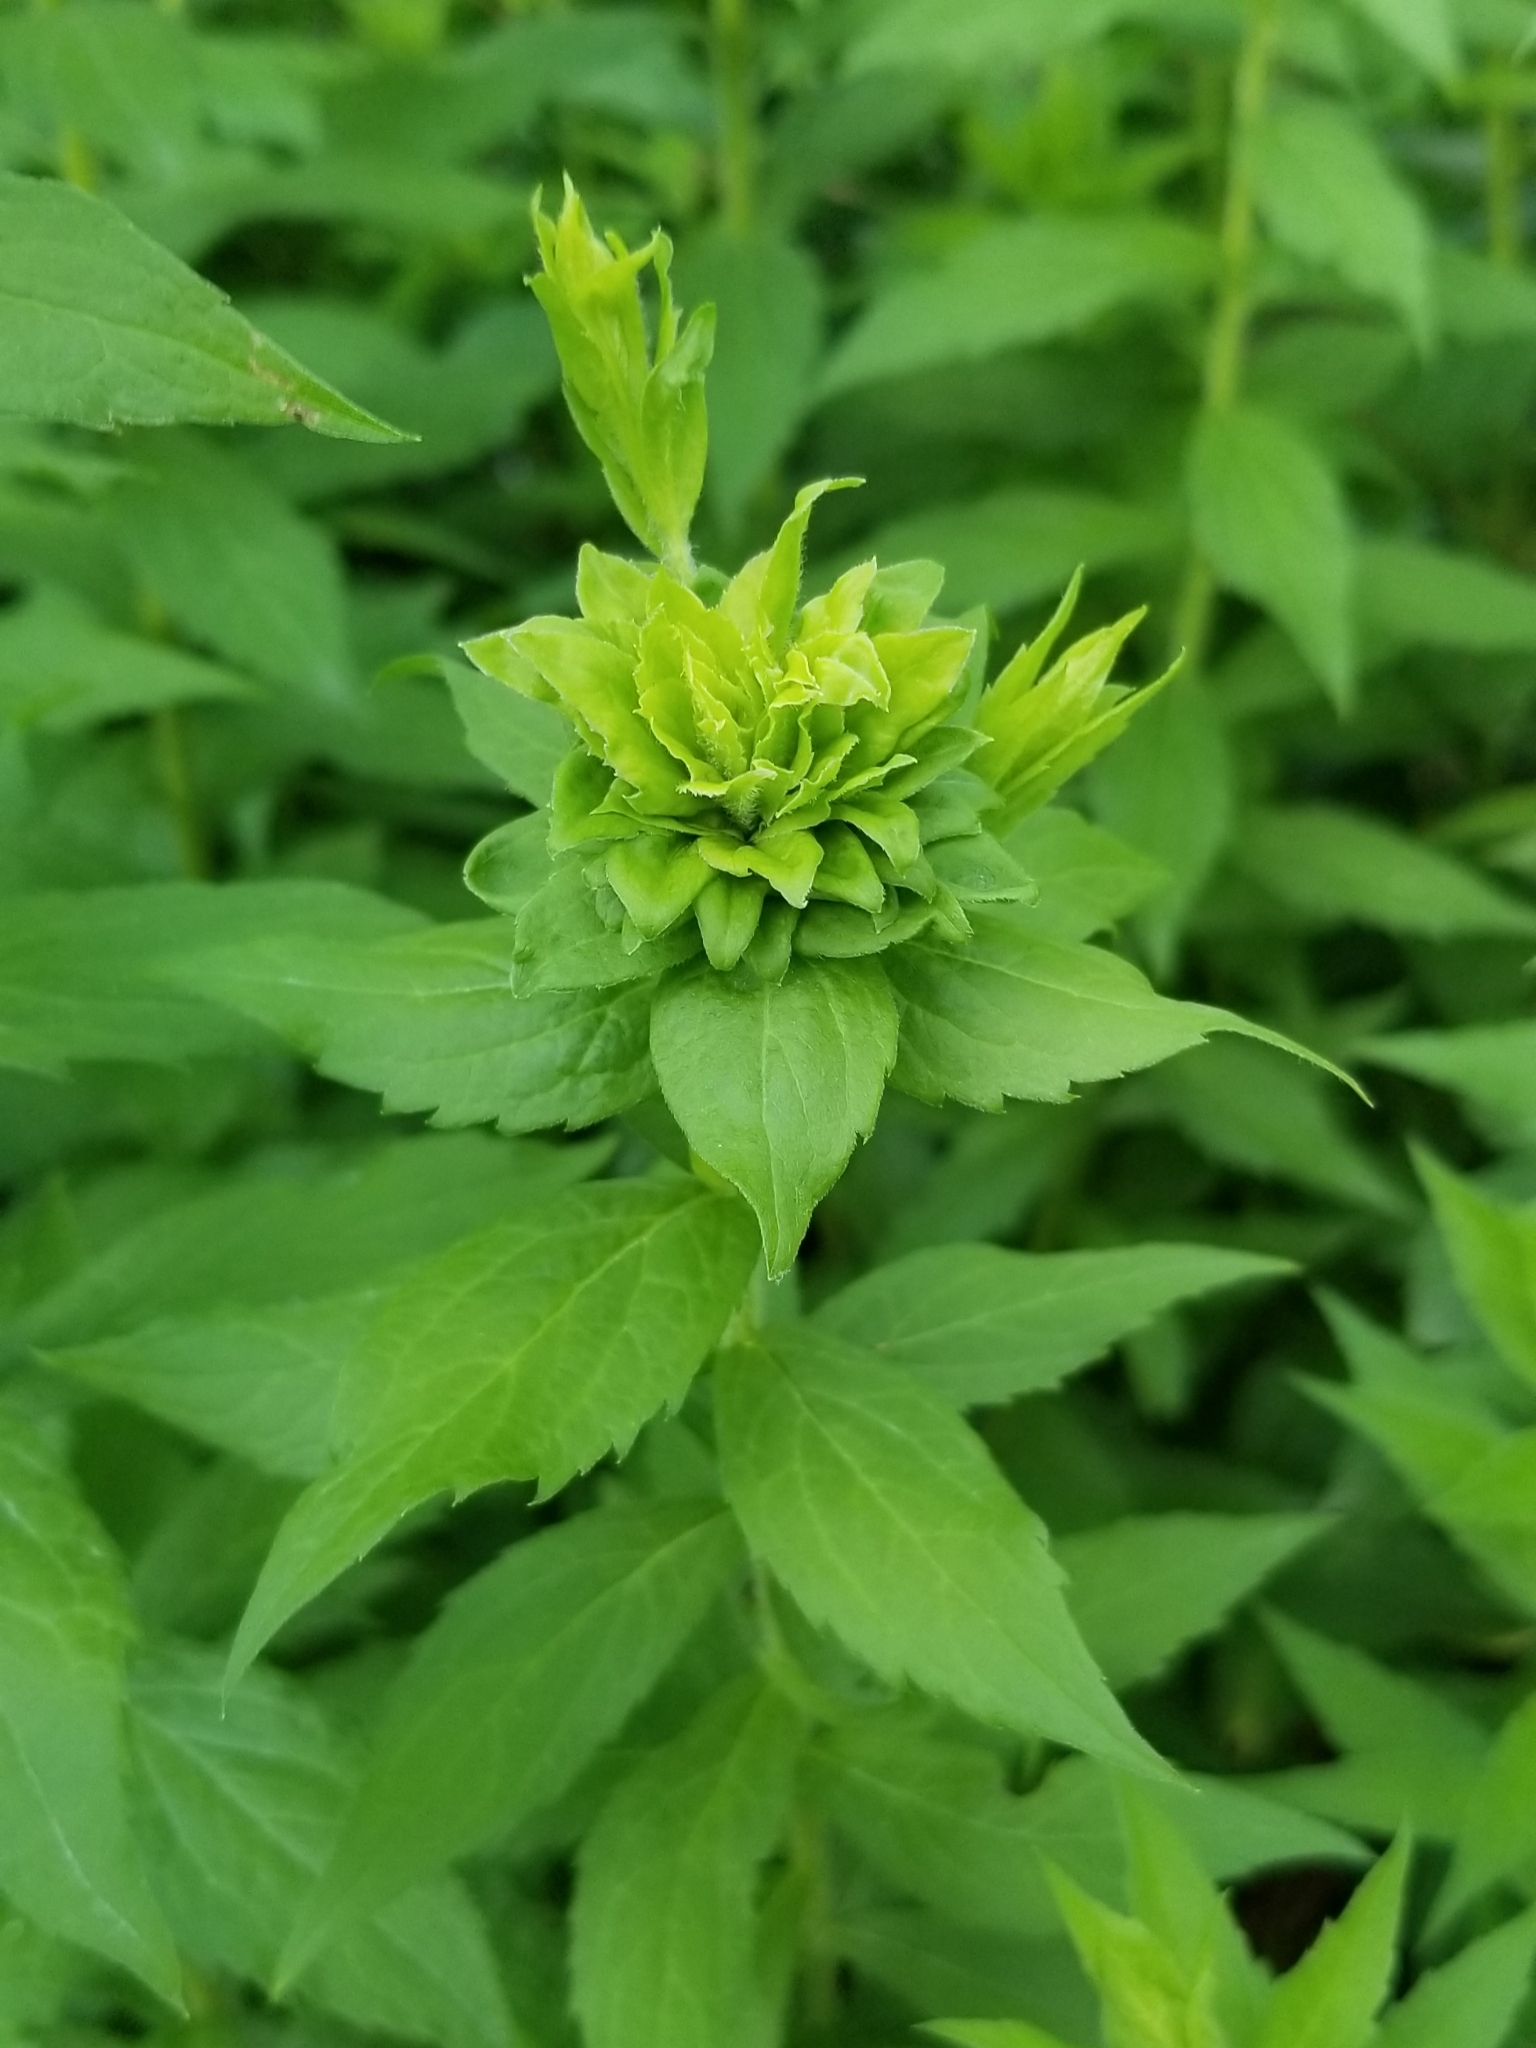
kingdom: Animalia
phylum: Arthropoda
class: Insecta
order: Diptera
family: Cecidomyiidae
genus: Rhopalomyia
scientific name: Rhopalomyia solidaginis
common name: Goldenrod bunch gall midge
